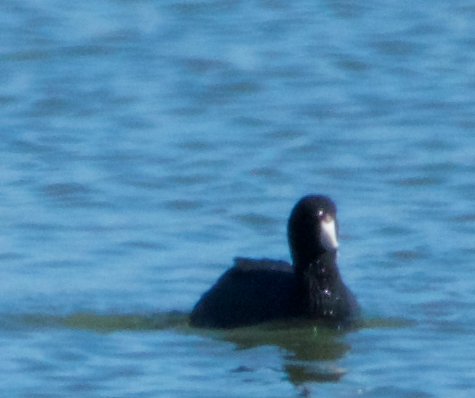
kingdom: Animalia
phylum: Chordata
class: Aves
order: Gruiformes
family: Rallidae
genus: Fulica
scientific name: Fulica americana
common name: American coot
